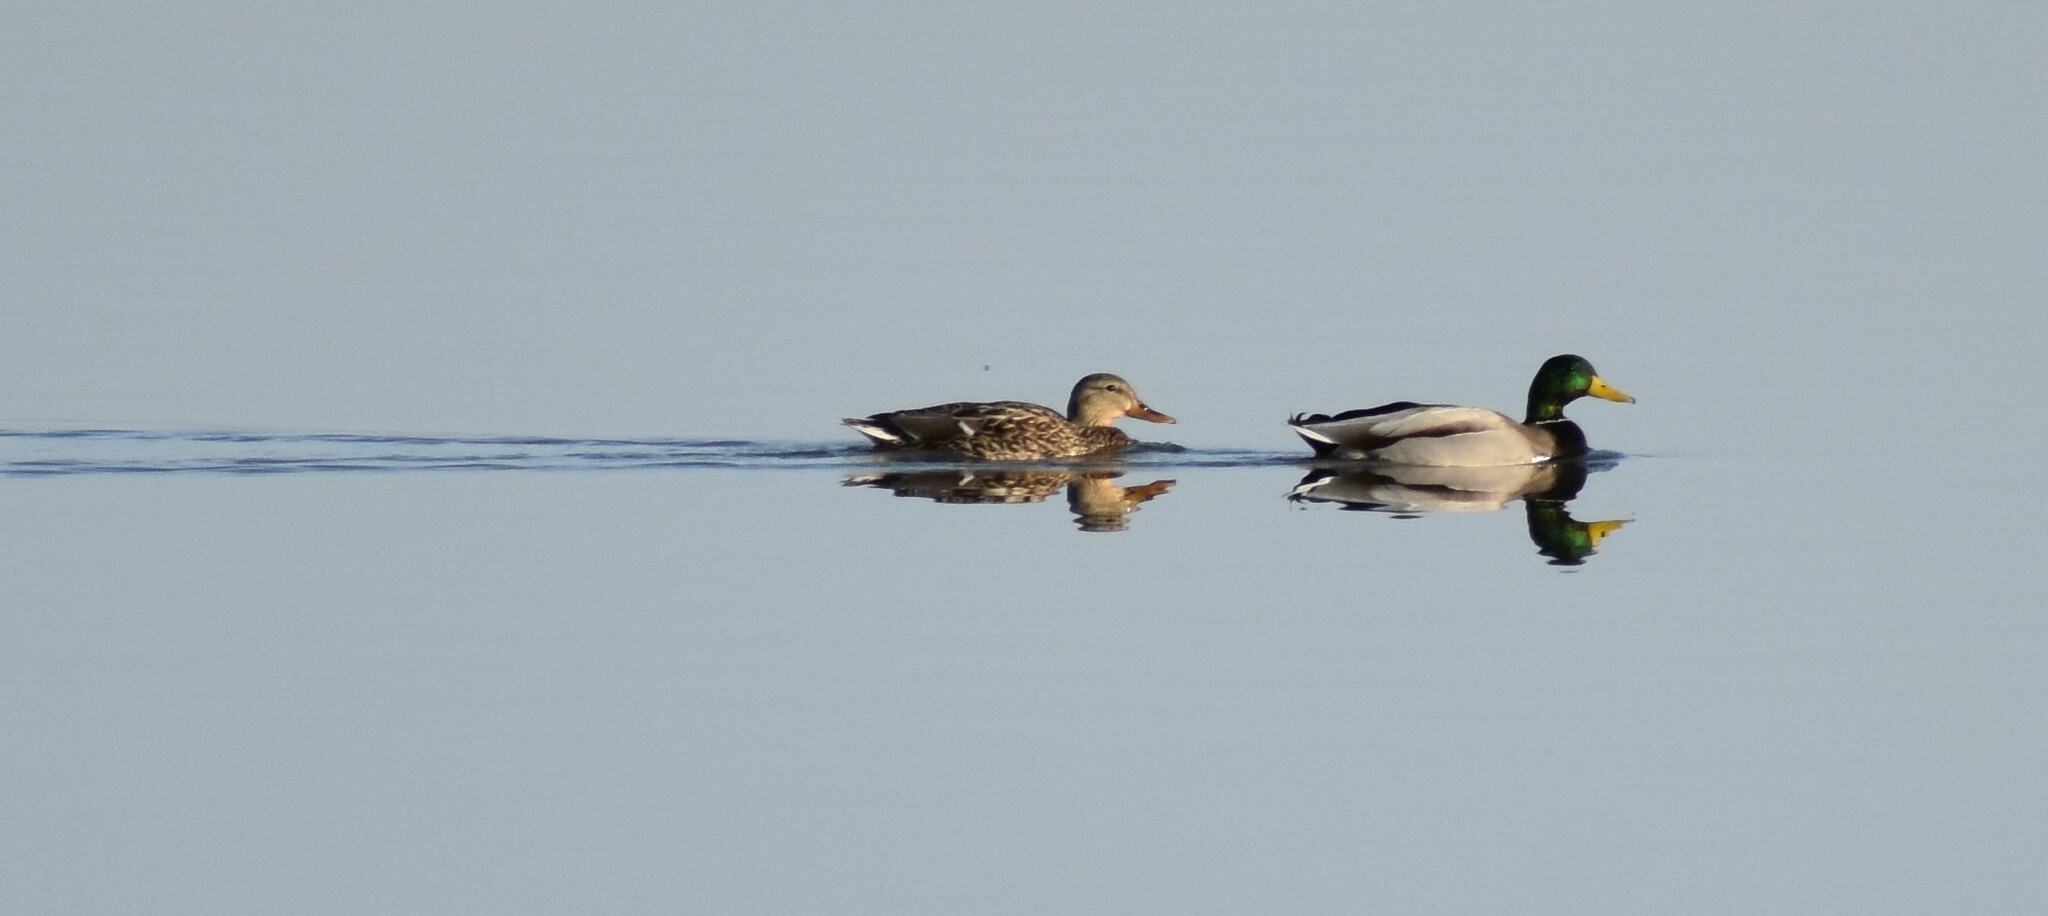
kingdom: Animalia
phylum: Chordata
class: Aves
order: Anseriformes
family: Anatidae
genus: Anas
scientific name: Anas platyrhynchos
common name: Mallard
